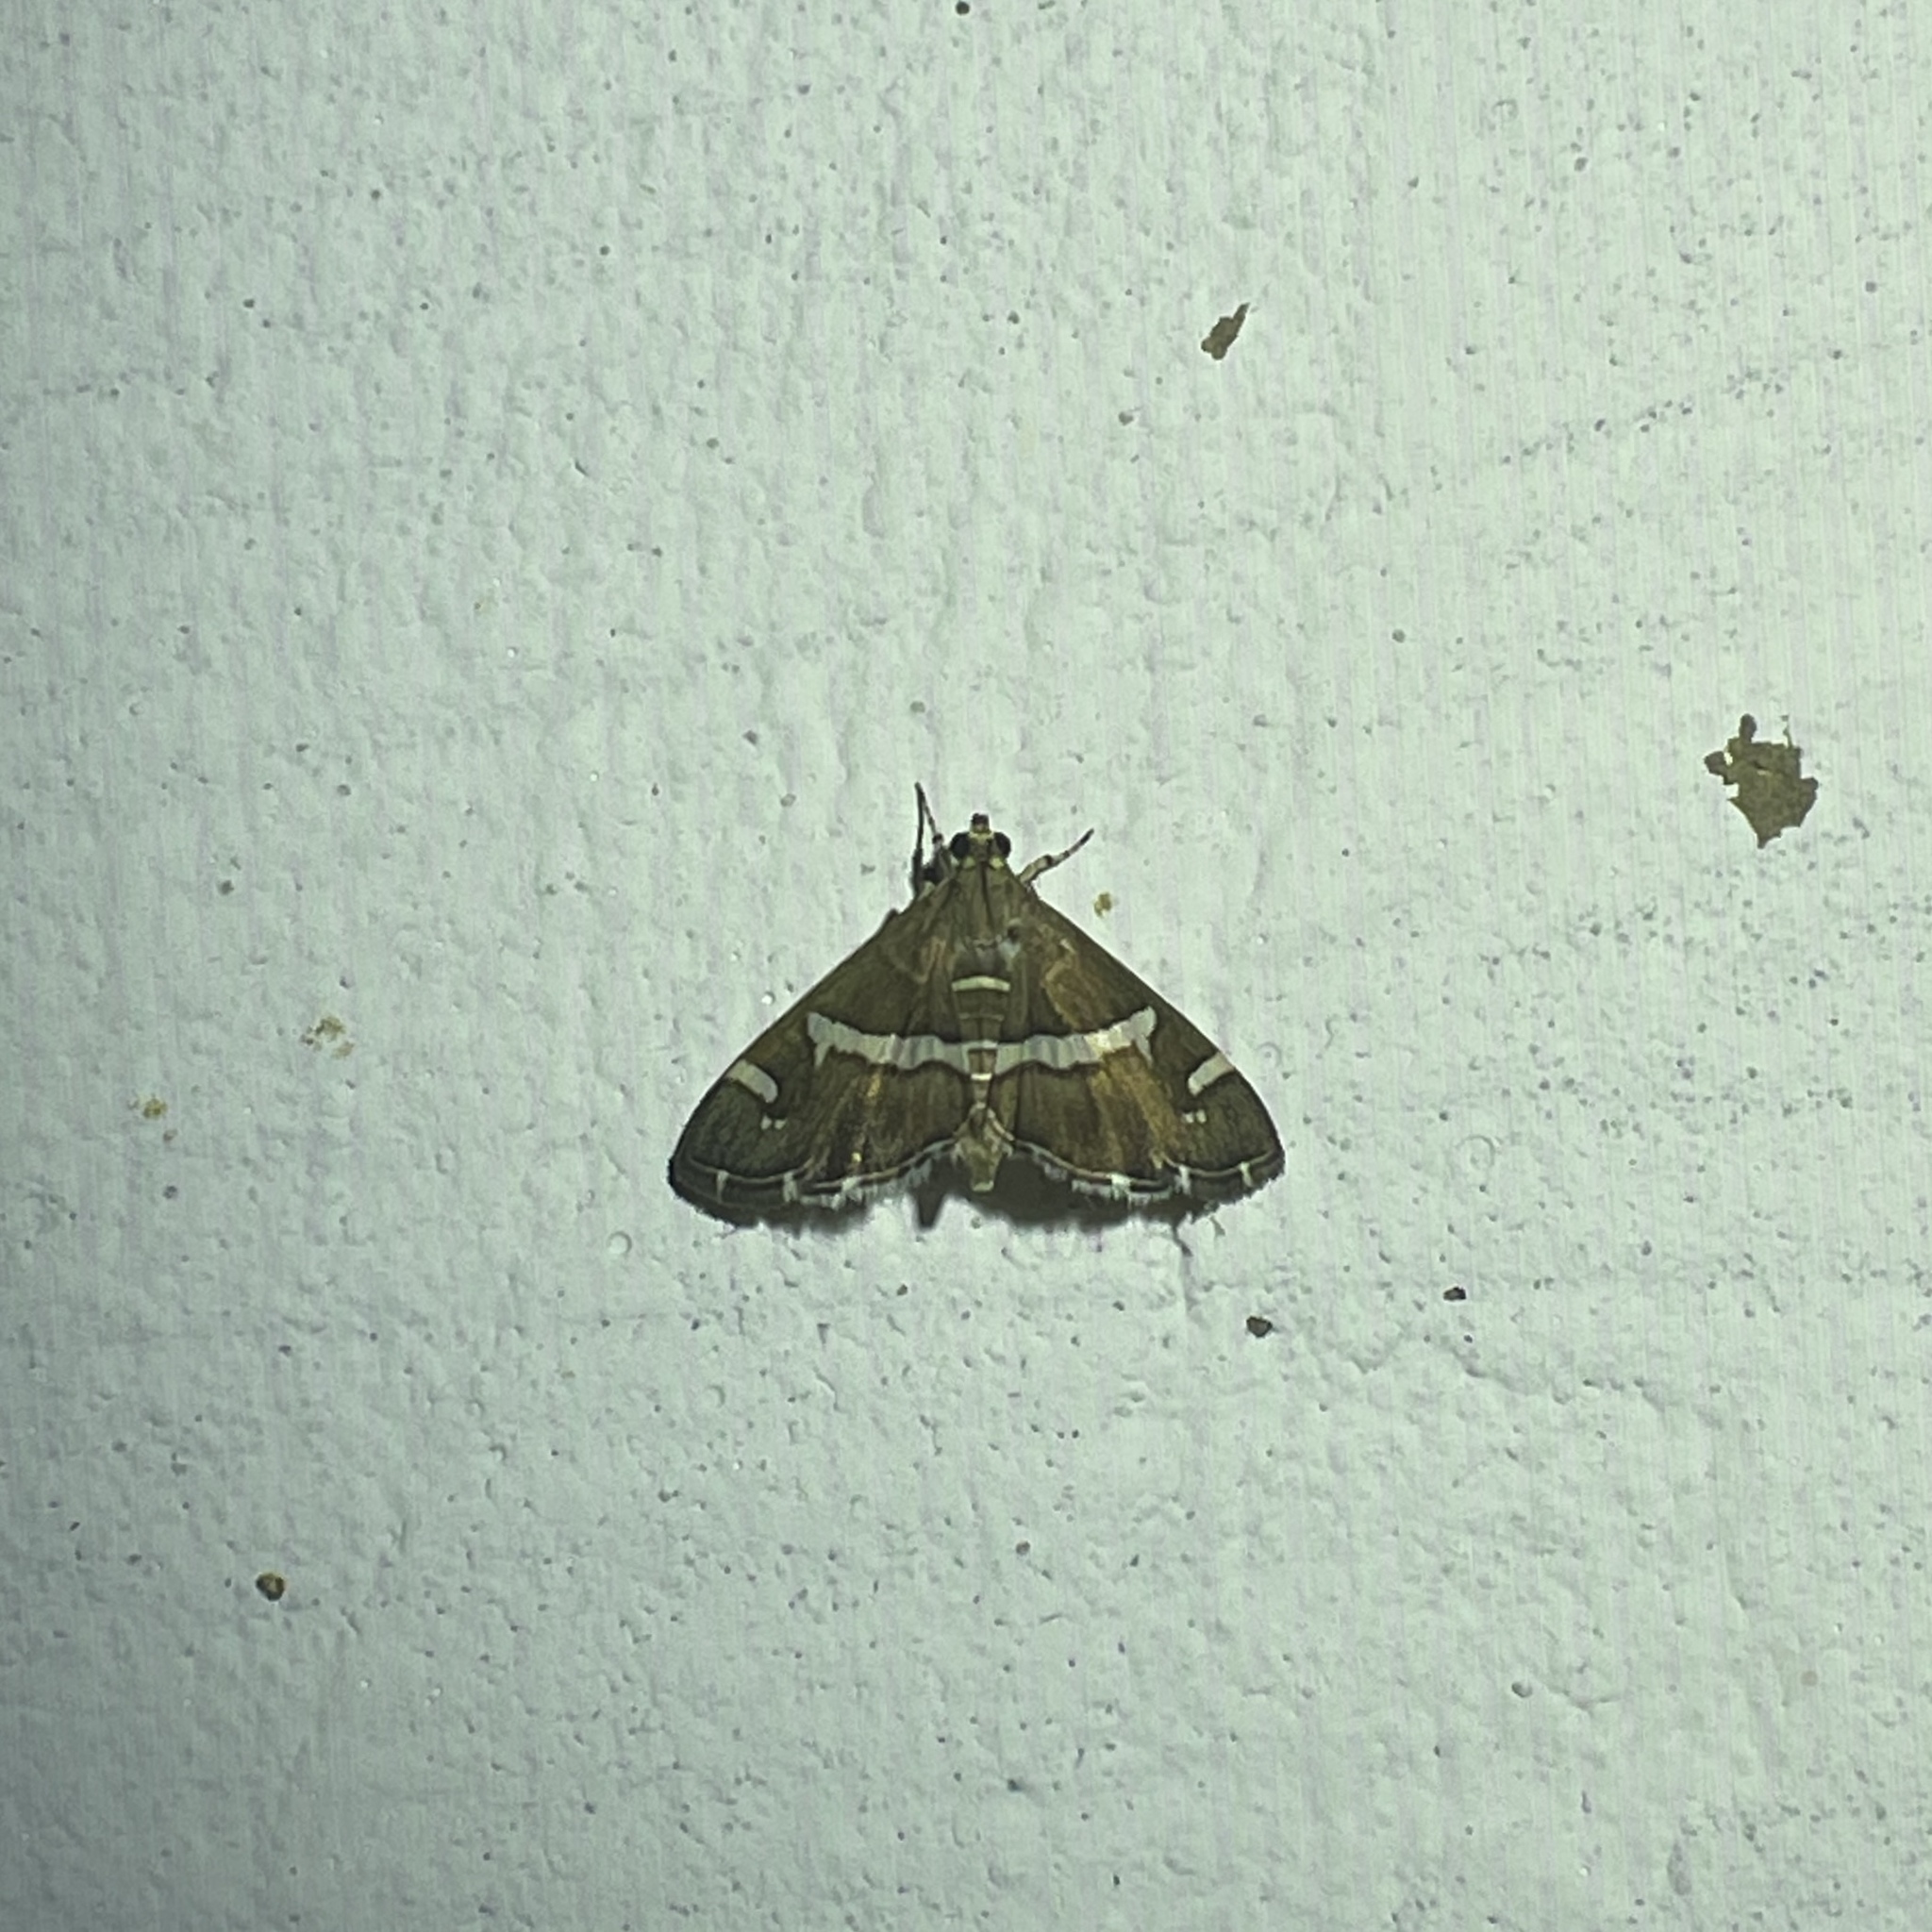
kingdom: Animalia
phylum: Arthropoda
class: Insecta
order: Lepidoptera
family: Crambidae
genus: Spoladea
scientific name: Spoladea recurvalis
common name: Beet webworm moth
